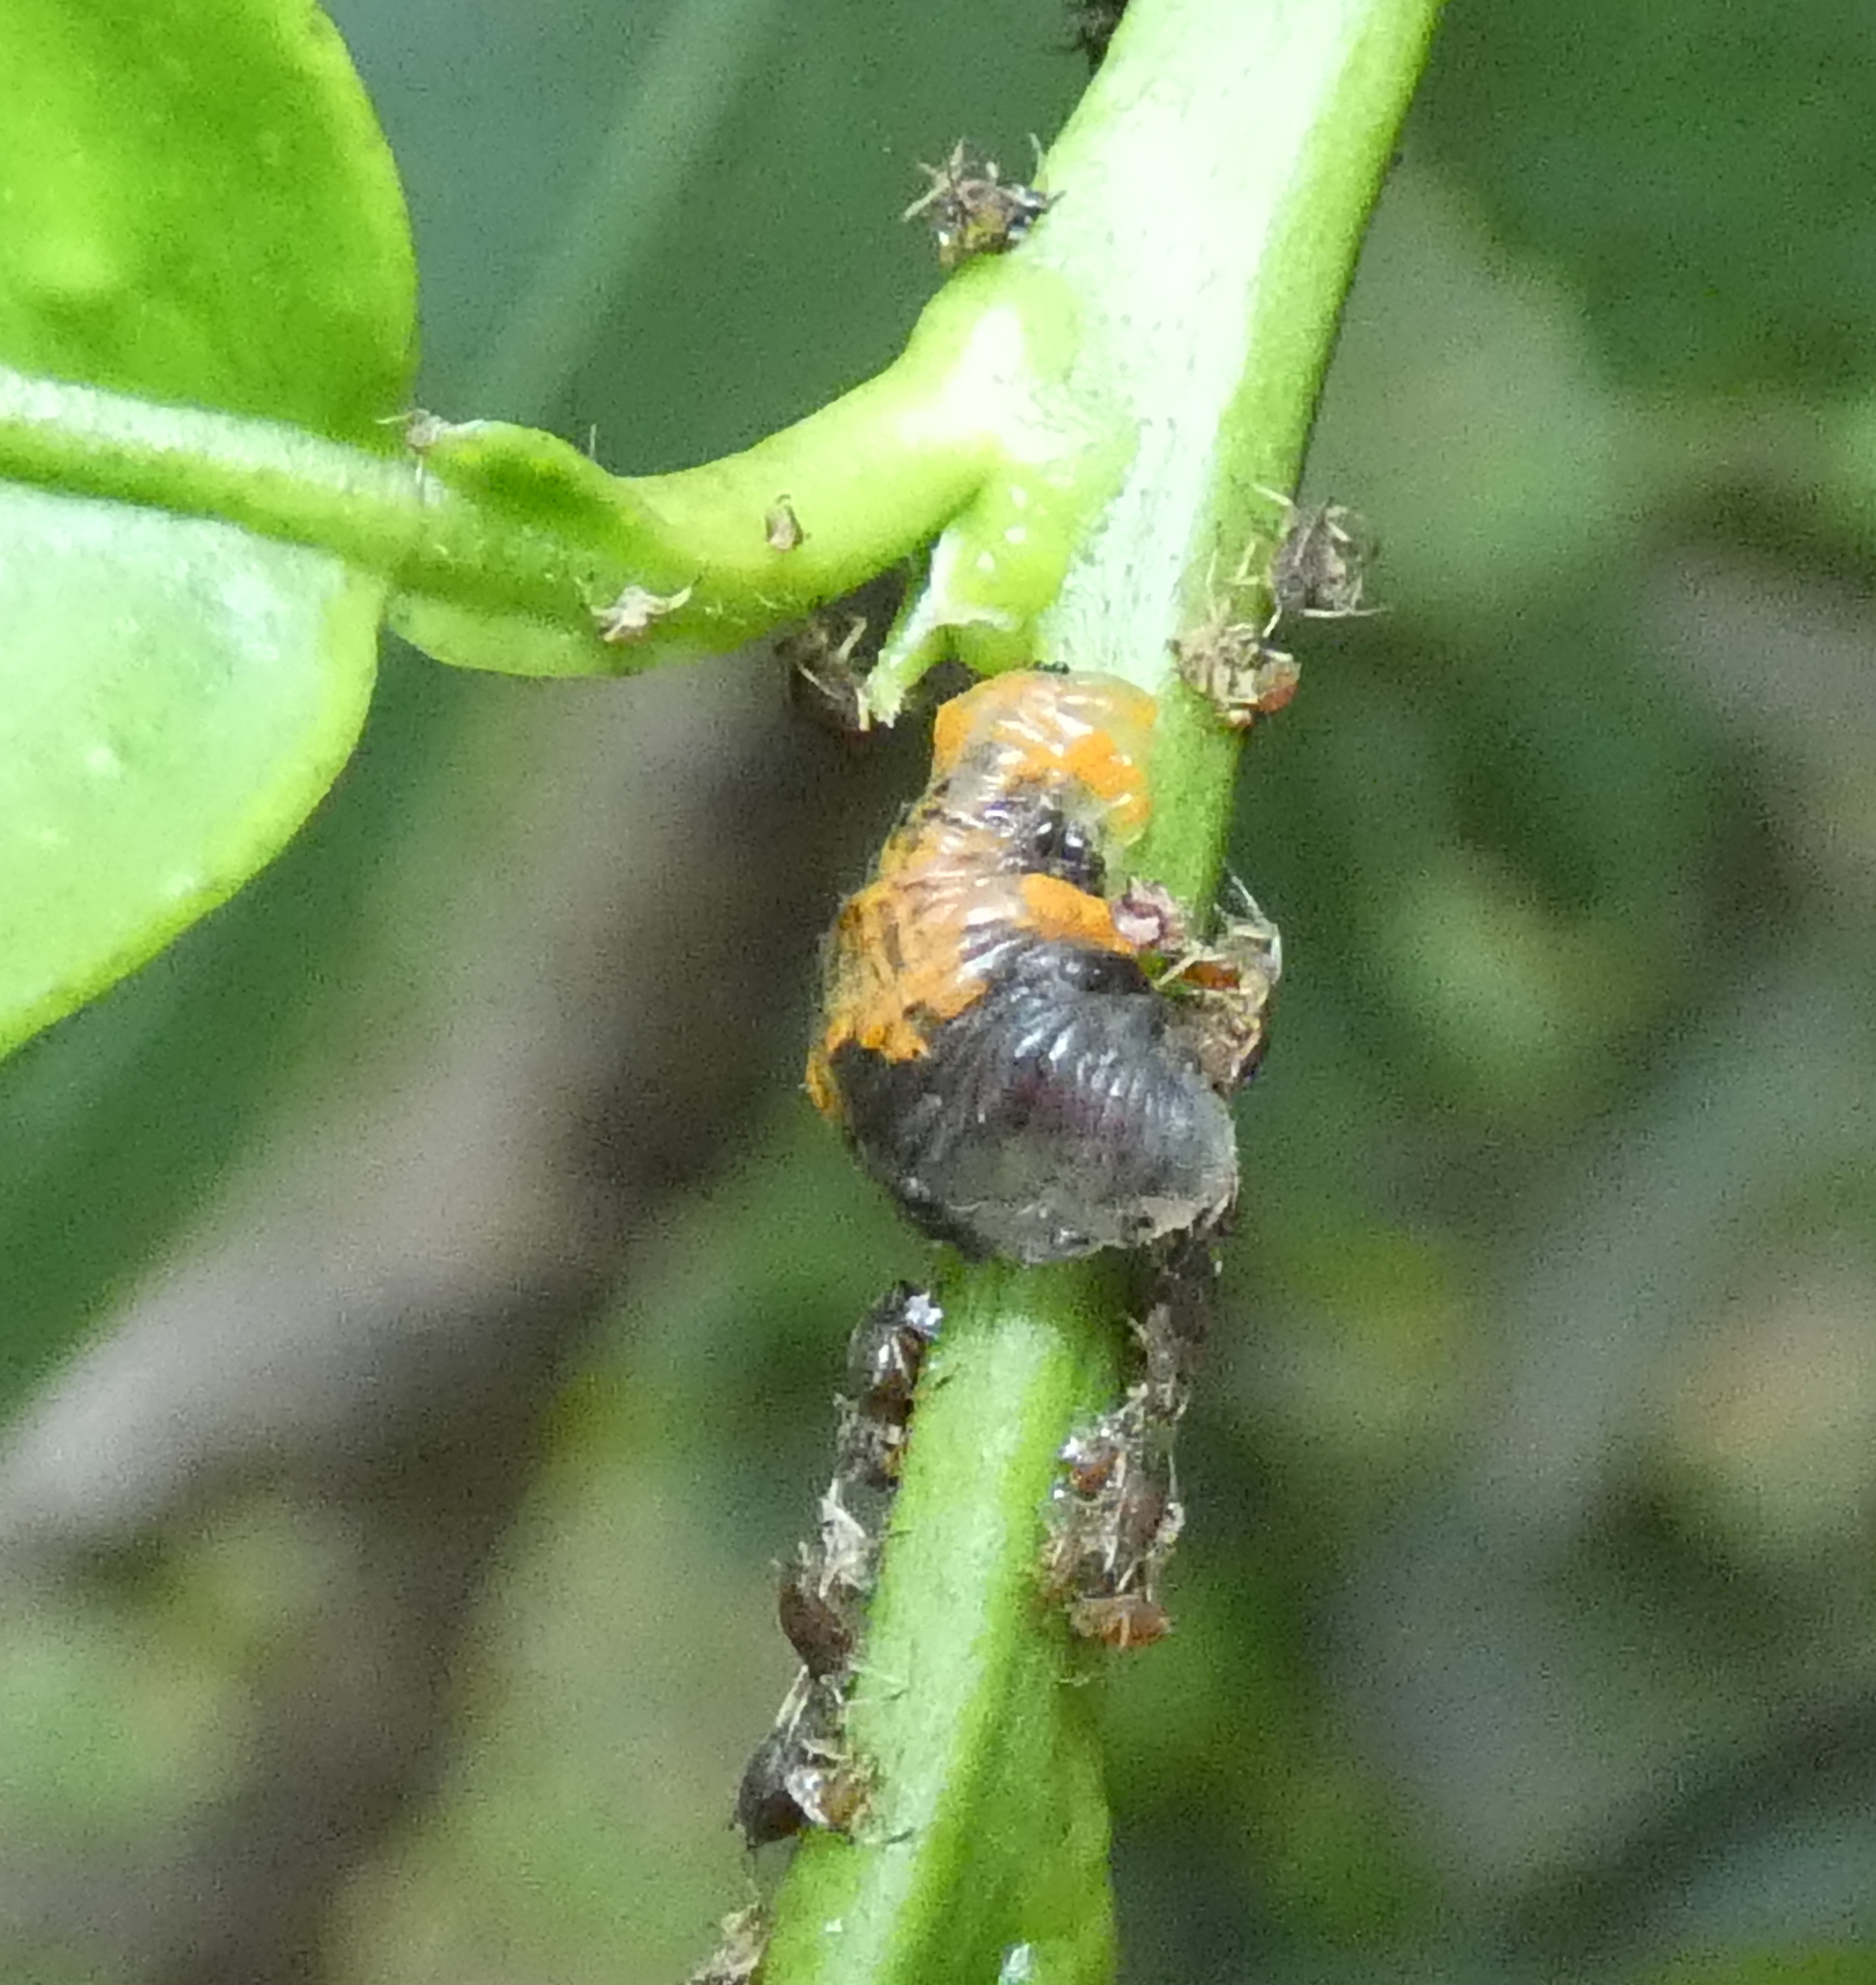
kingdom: Animalia
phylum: Arthropoda
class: Insecta
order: Diptera
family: Syrphidae
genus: Ocyptamus
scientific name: Ocyptamus gastrostactus
